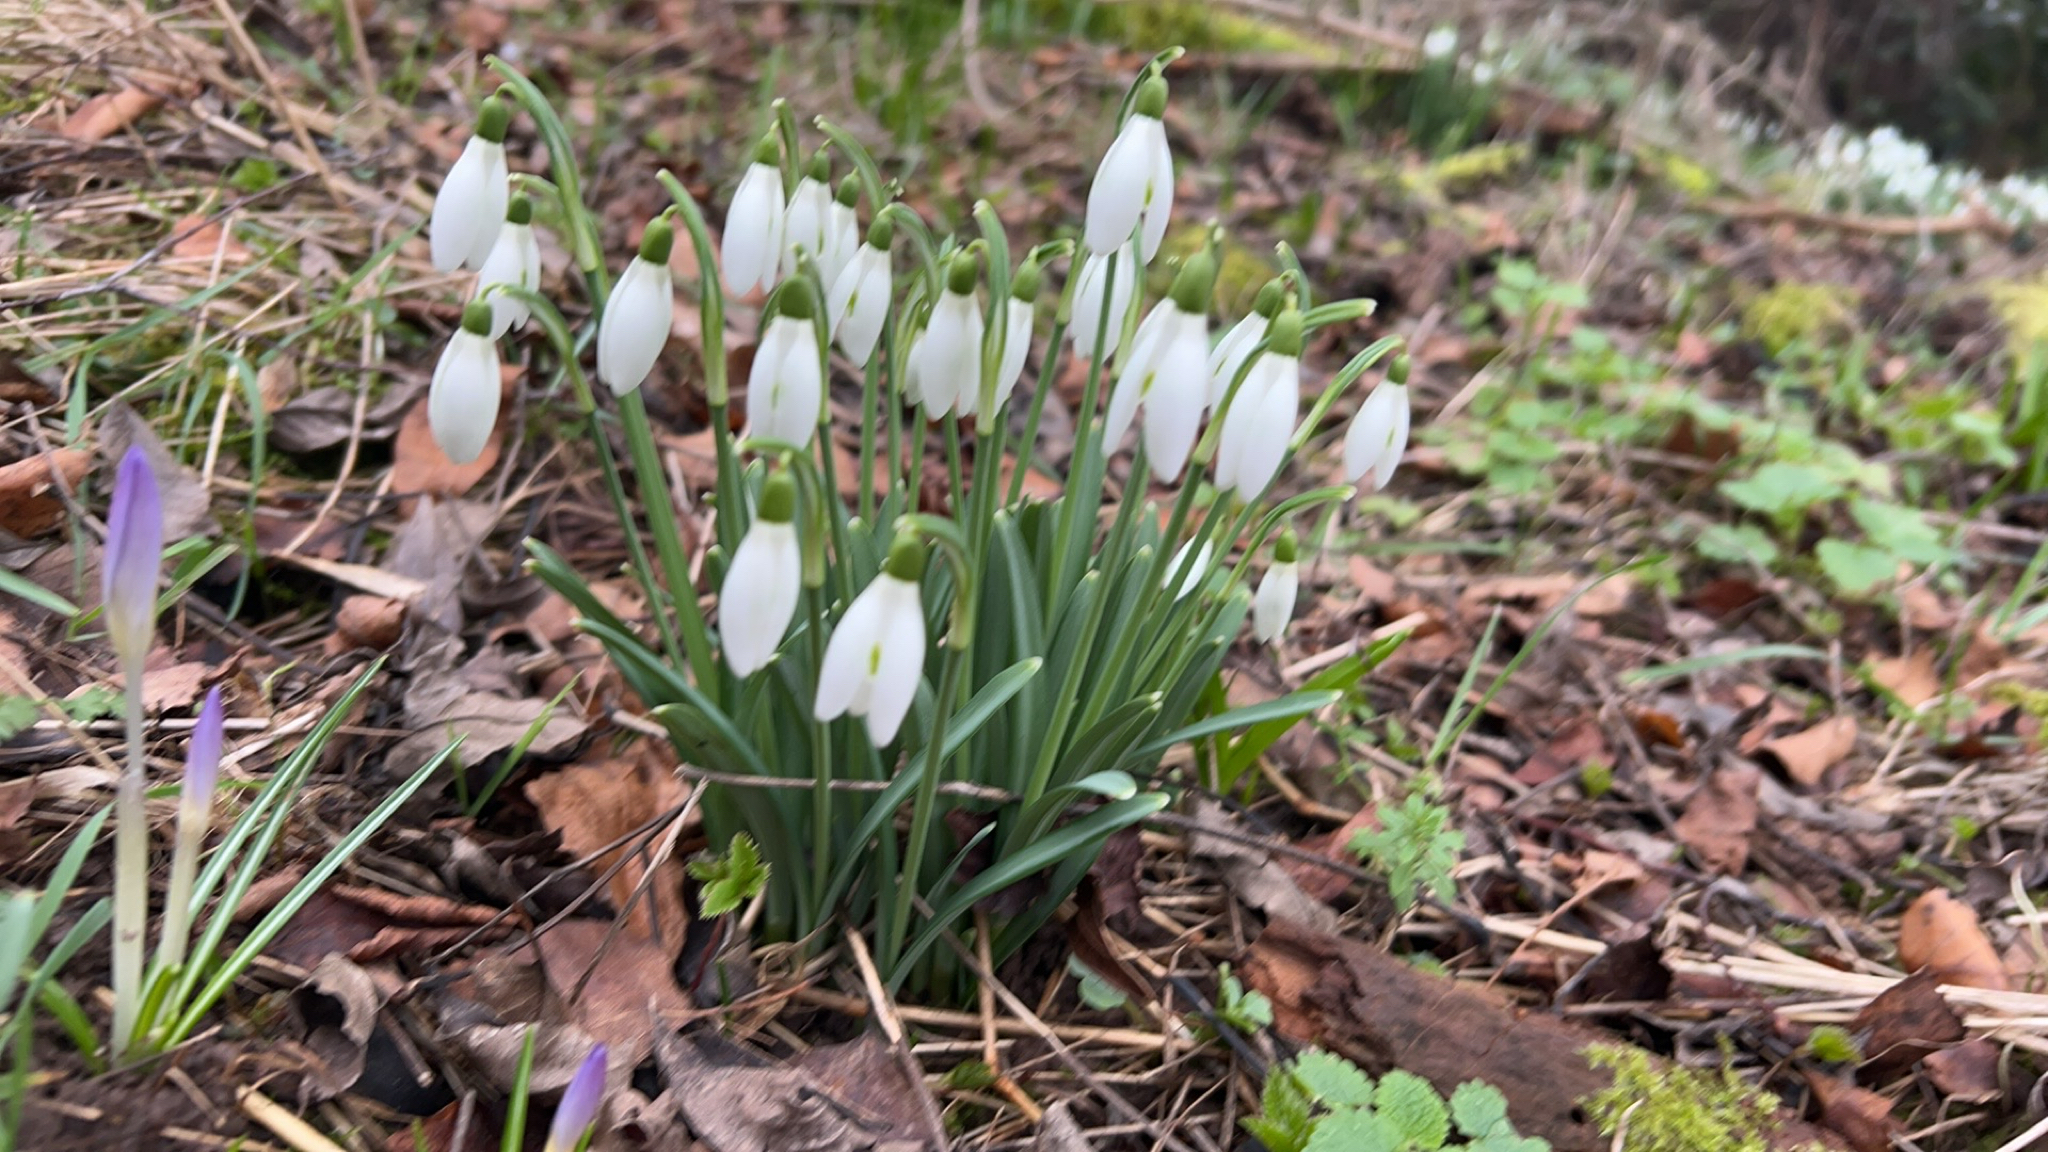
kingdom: Plantae
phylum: Tracheophyta
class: Liliopsida
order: Asparagales
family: Amaryllidaceae
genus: Galanthus
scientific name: Galanthus nivalis
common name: Snowdrop
